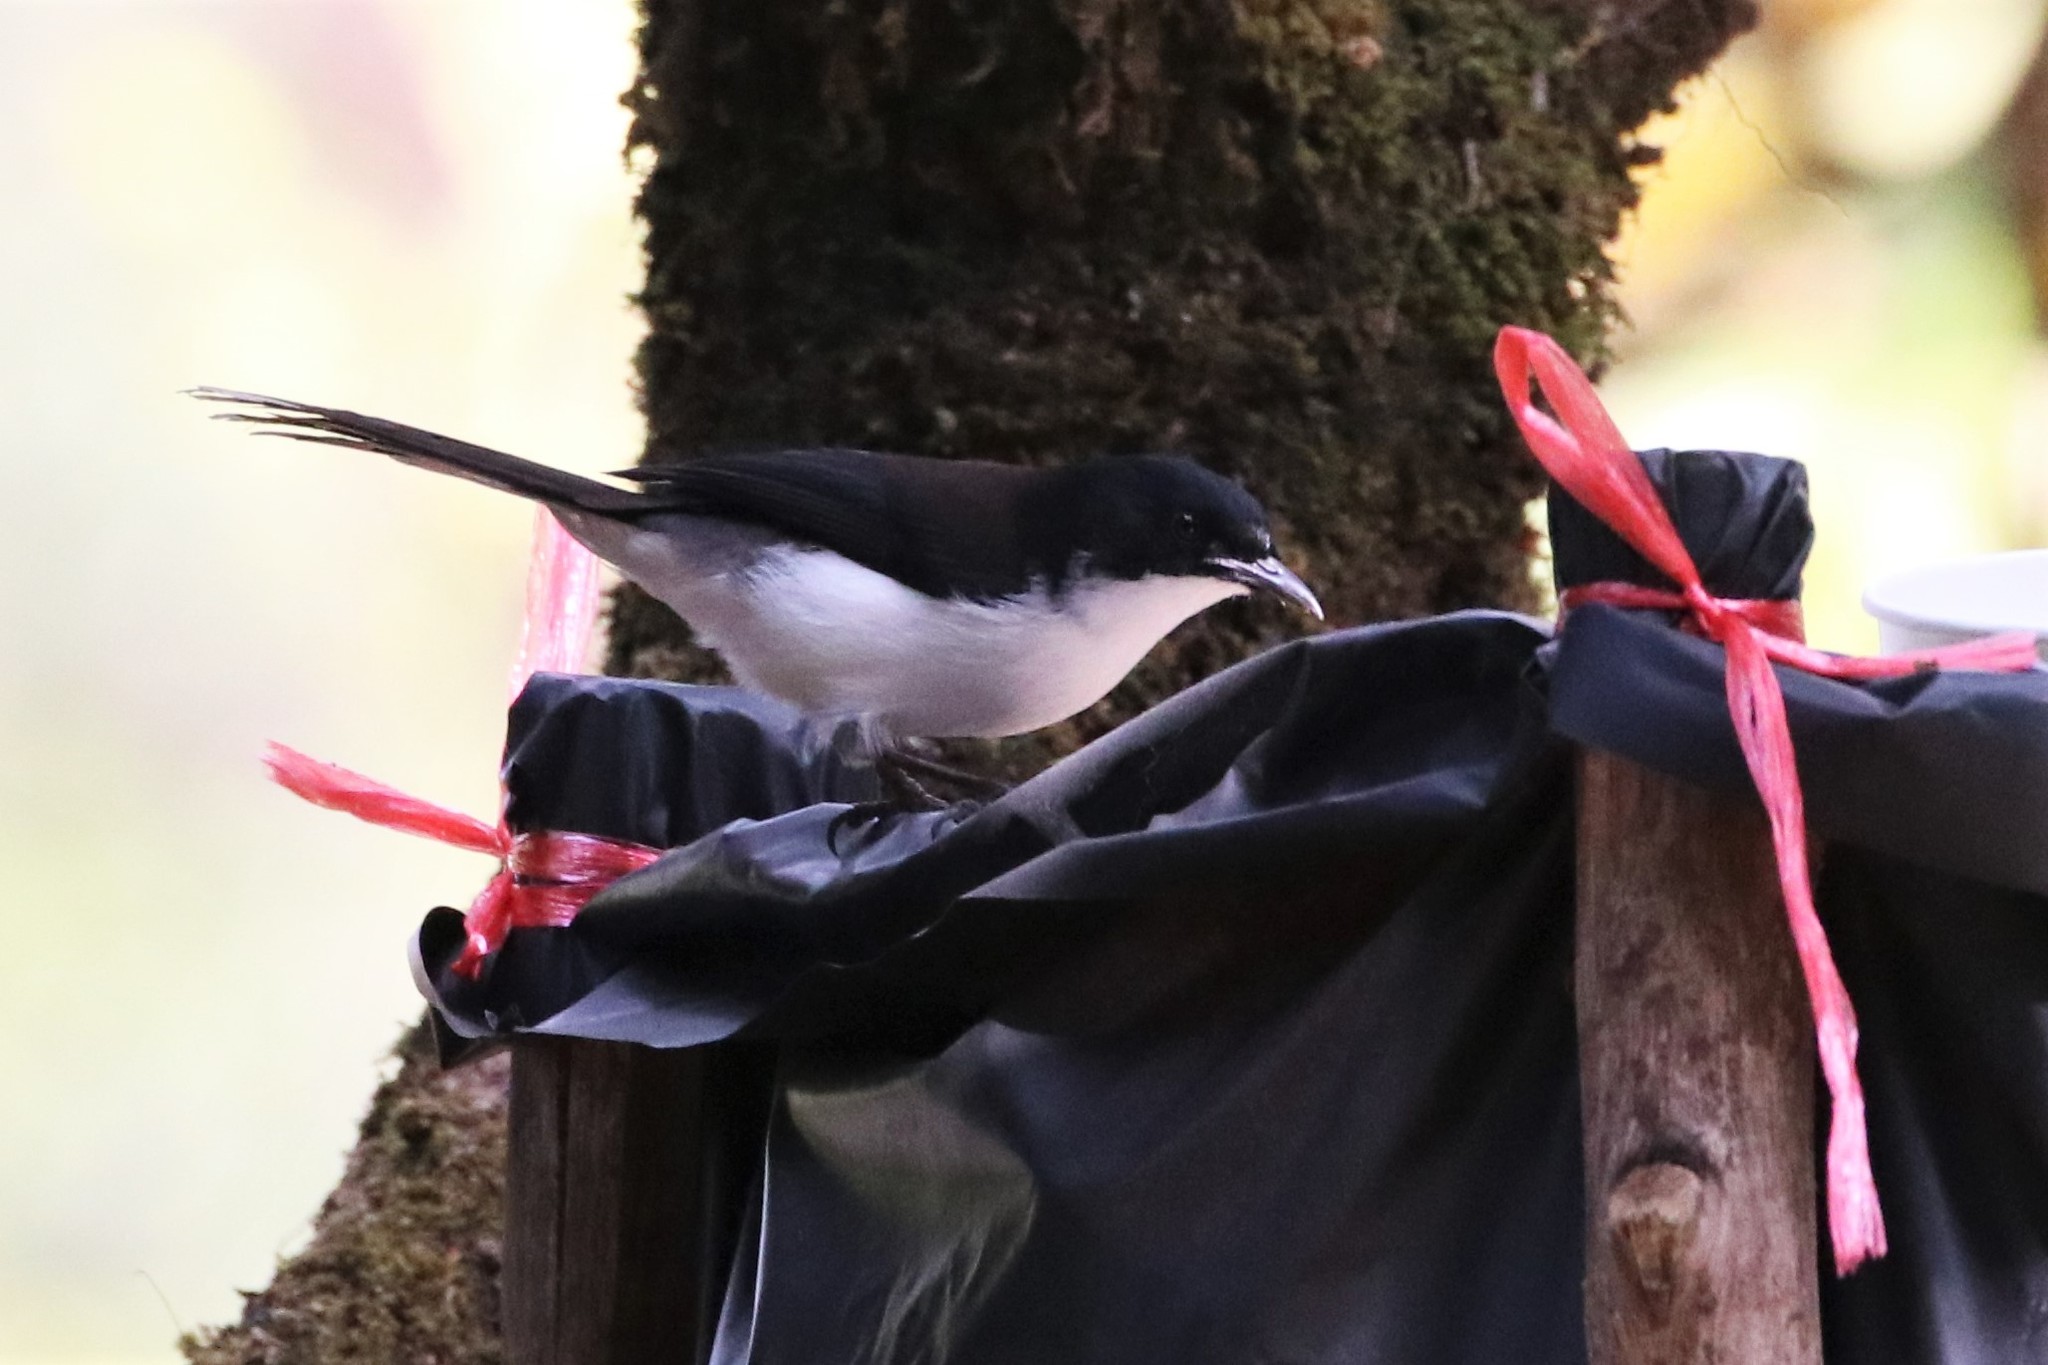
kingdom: Animalia
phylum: Chordata
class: Aves
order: Passeriformes
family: Leiothrichidae
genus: Heterophasia
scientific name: Heterophasia melanoleuca
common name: Dark-backed sibia
